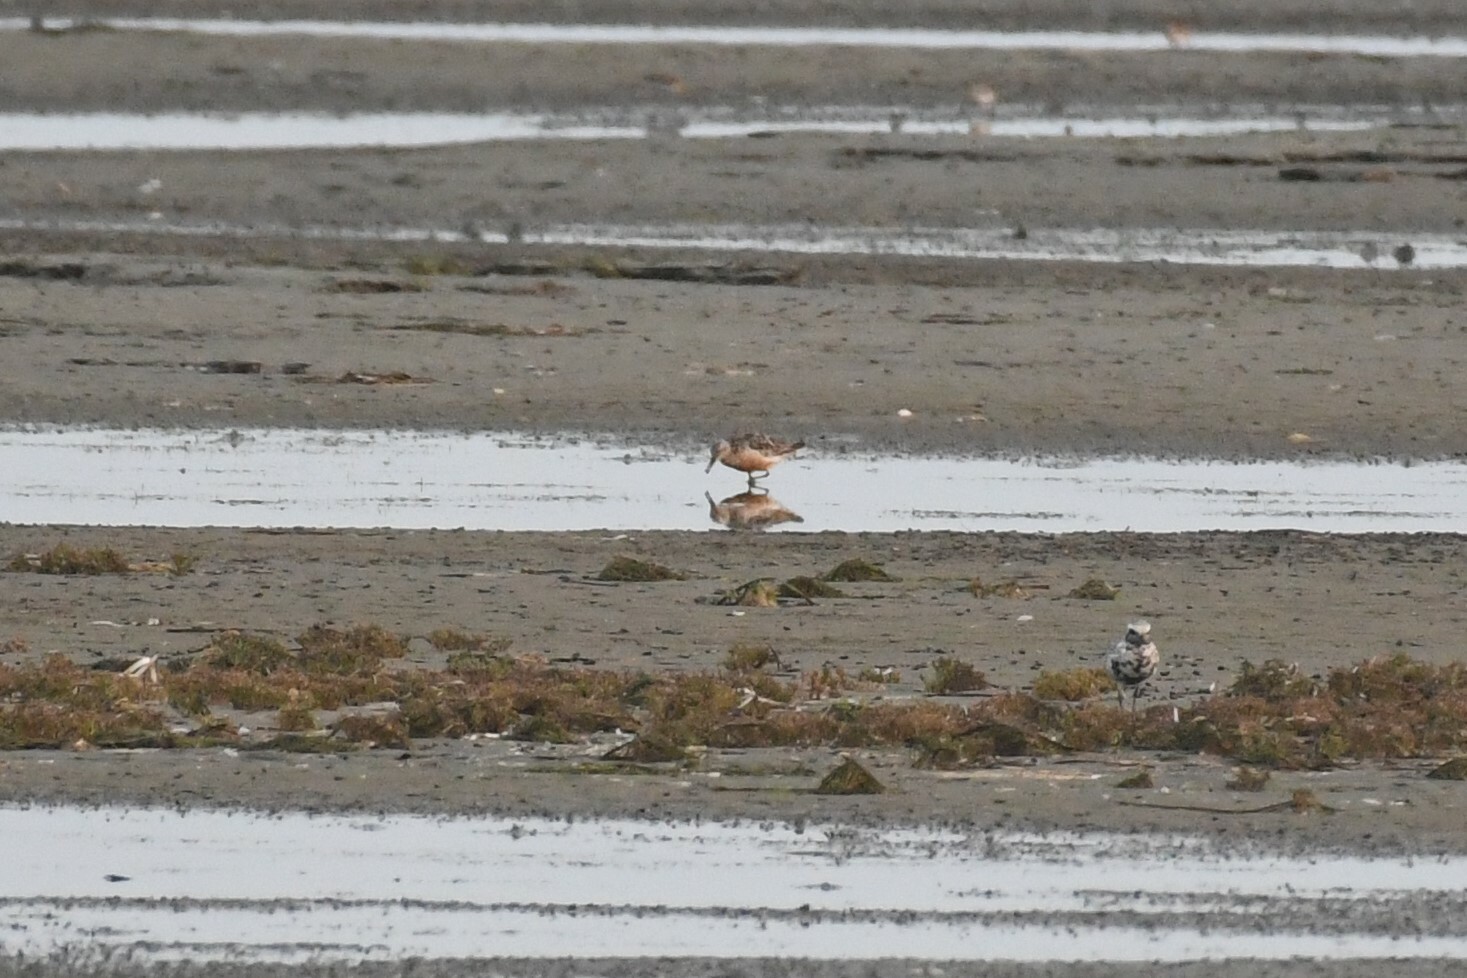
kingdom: Animalia
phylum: Chordata
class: Aves
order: Charadriiformes
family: Scolopacidae
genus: Calidris
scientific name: Calidris canutus
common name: Red knot
